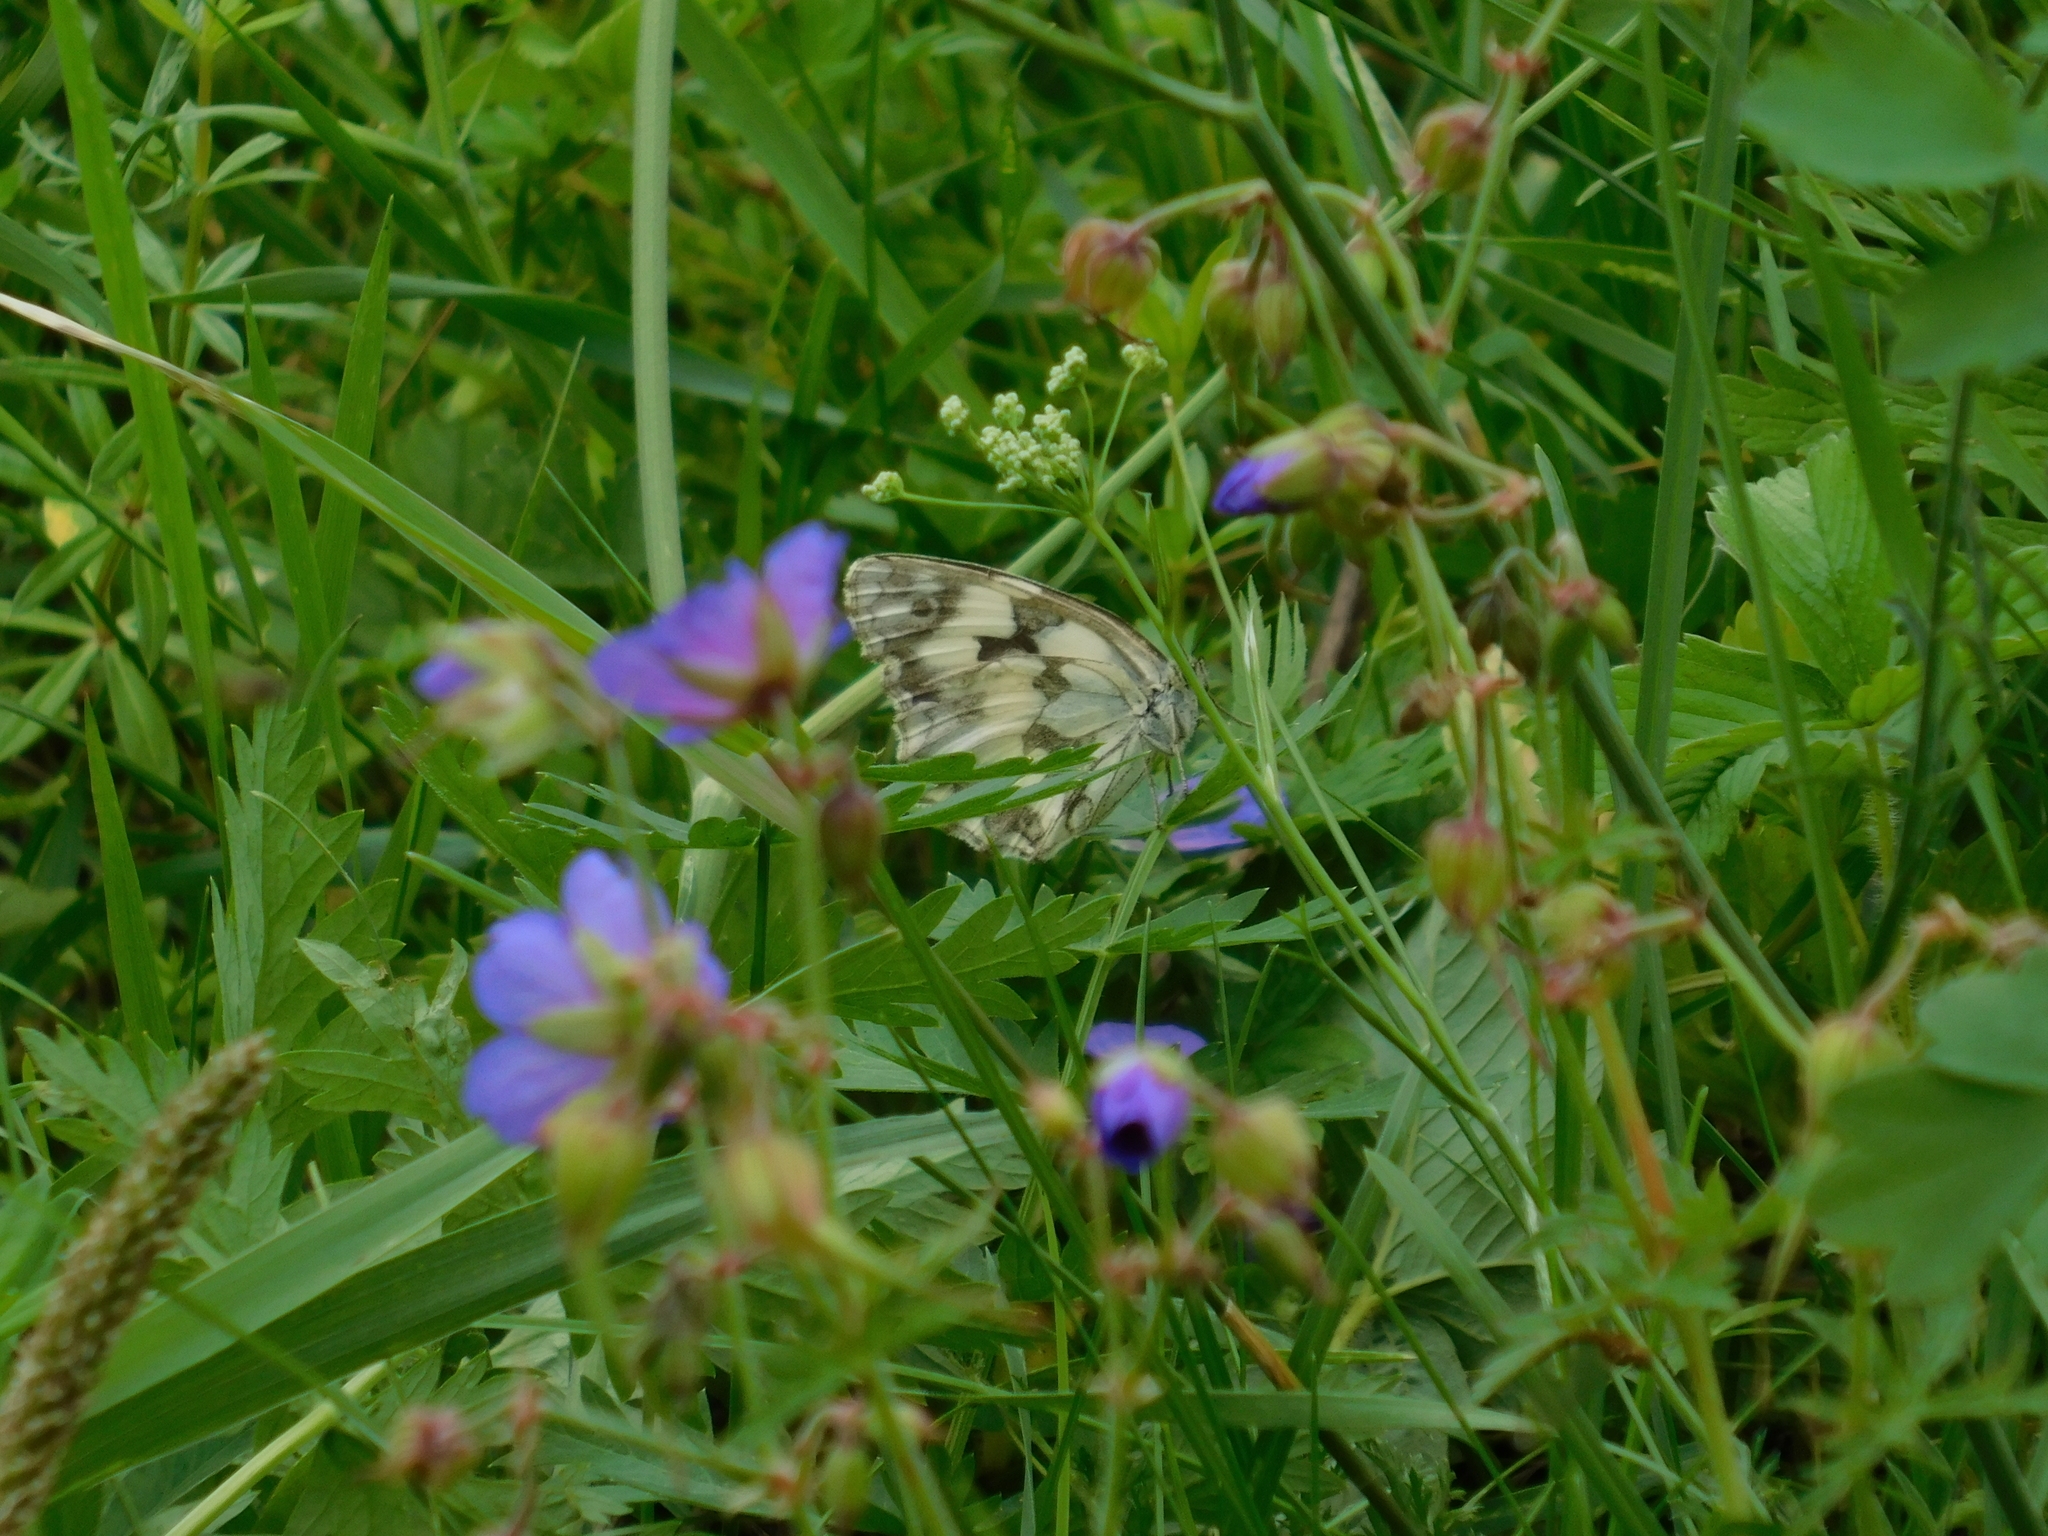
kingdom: Animalia
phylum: Arthropoda
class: Insecta
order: Lepidoptera
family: Nymphalidae
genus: Melanargia
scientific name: Melanargia galathea
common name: Marbled white
